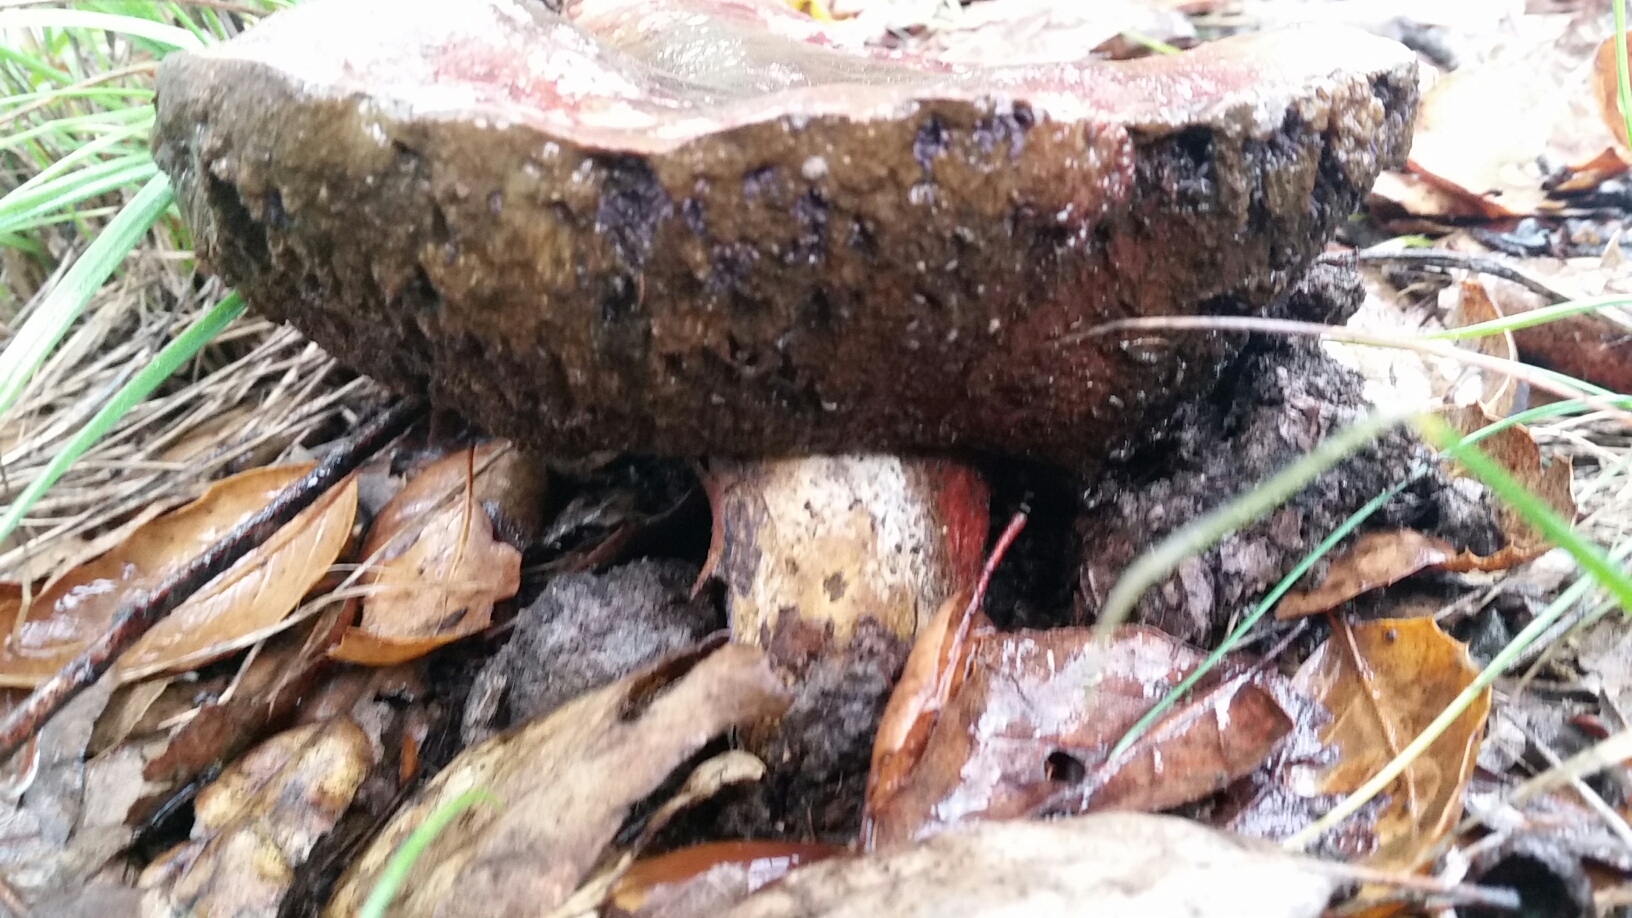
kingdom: Fungi
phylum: Basidiomycota
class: Agaricomycetes
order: Boletales
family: Boletaceae
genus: Suillellus
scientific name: Suillellus amygdalinus
